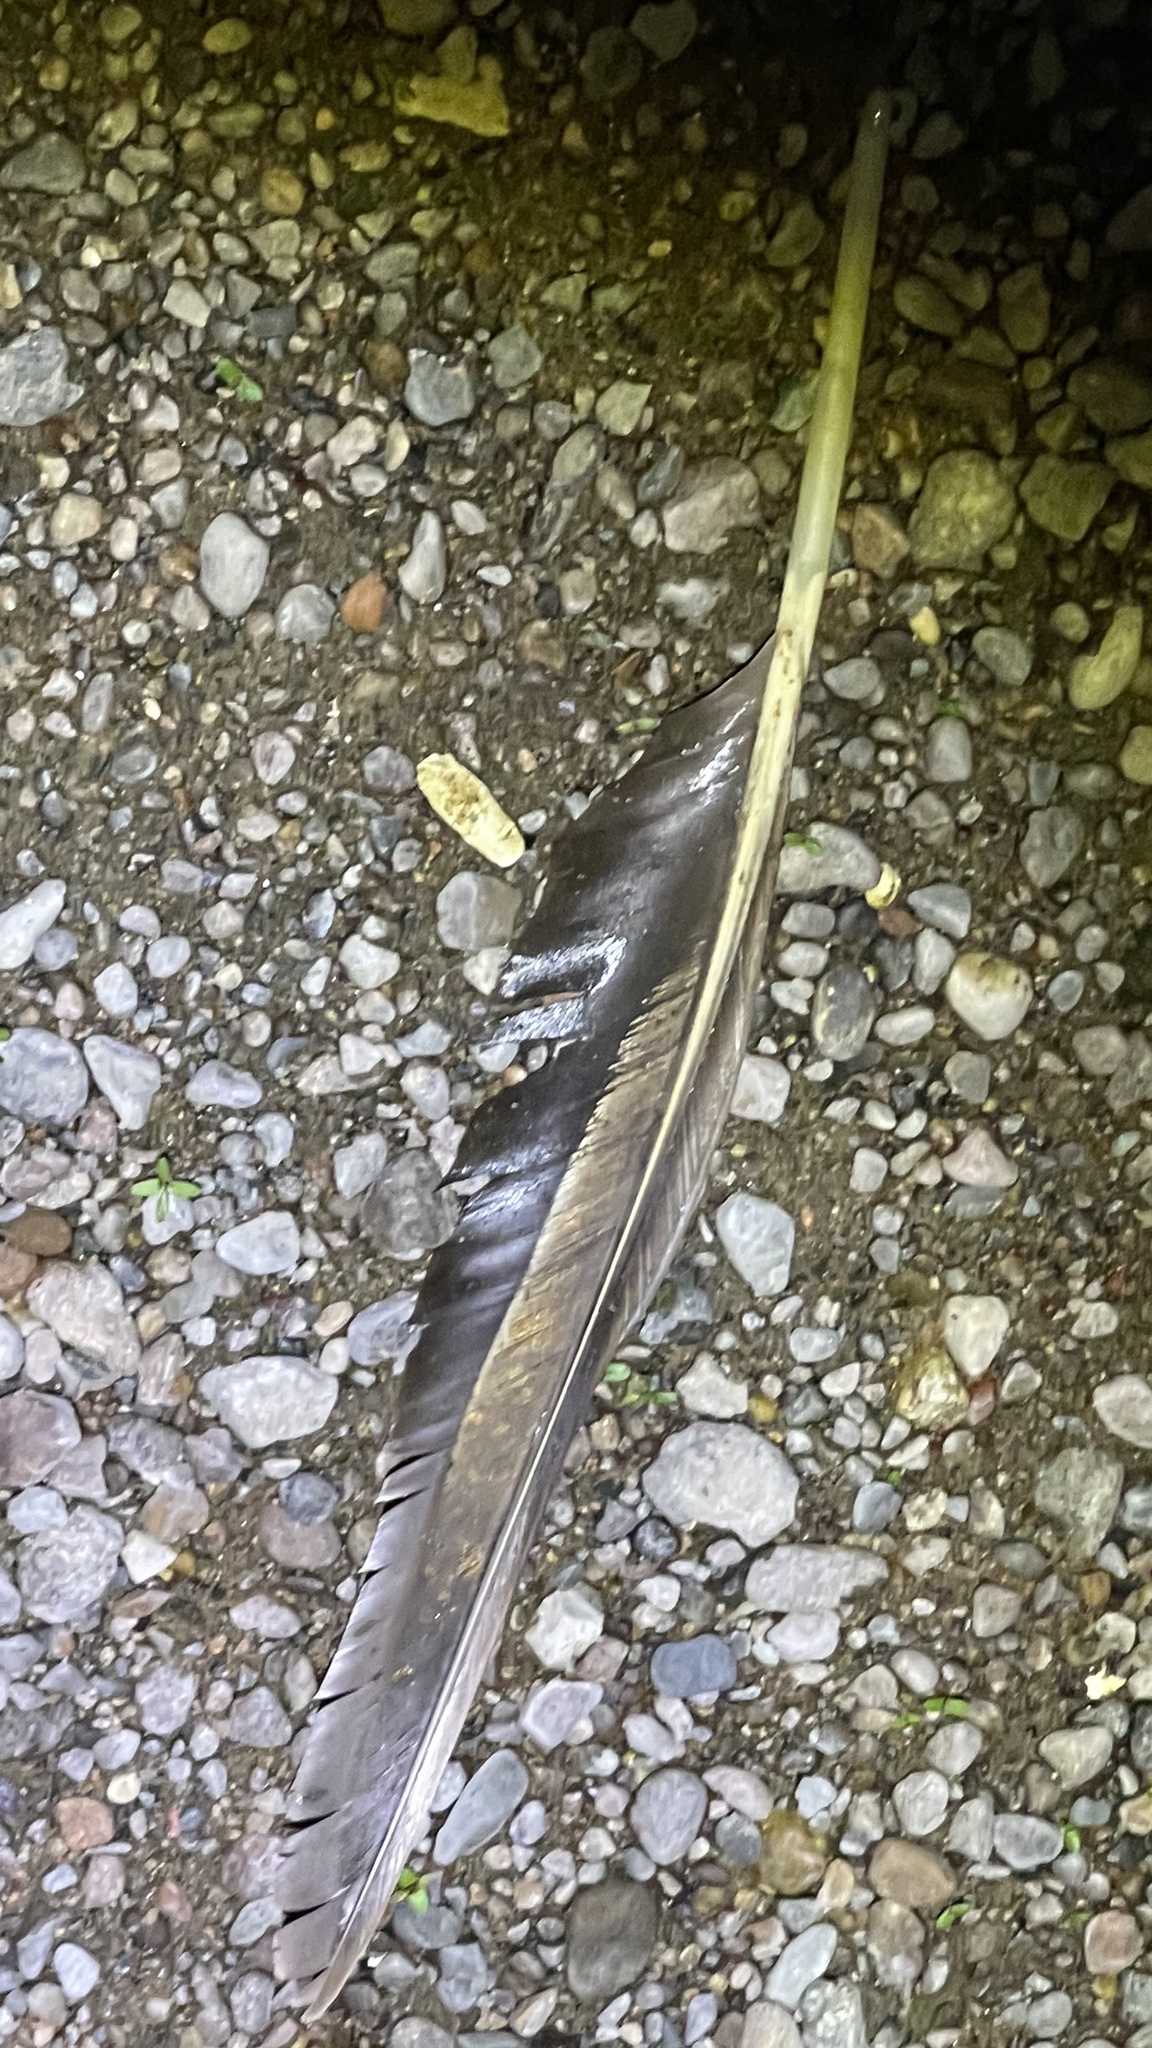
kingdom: Animalia
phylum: Chordata
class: Aves
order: Anseriformes
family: Anatidae
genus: Branta
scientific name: Branta canadensis
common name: Canada goose
